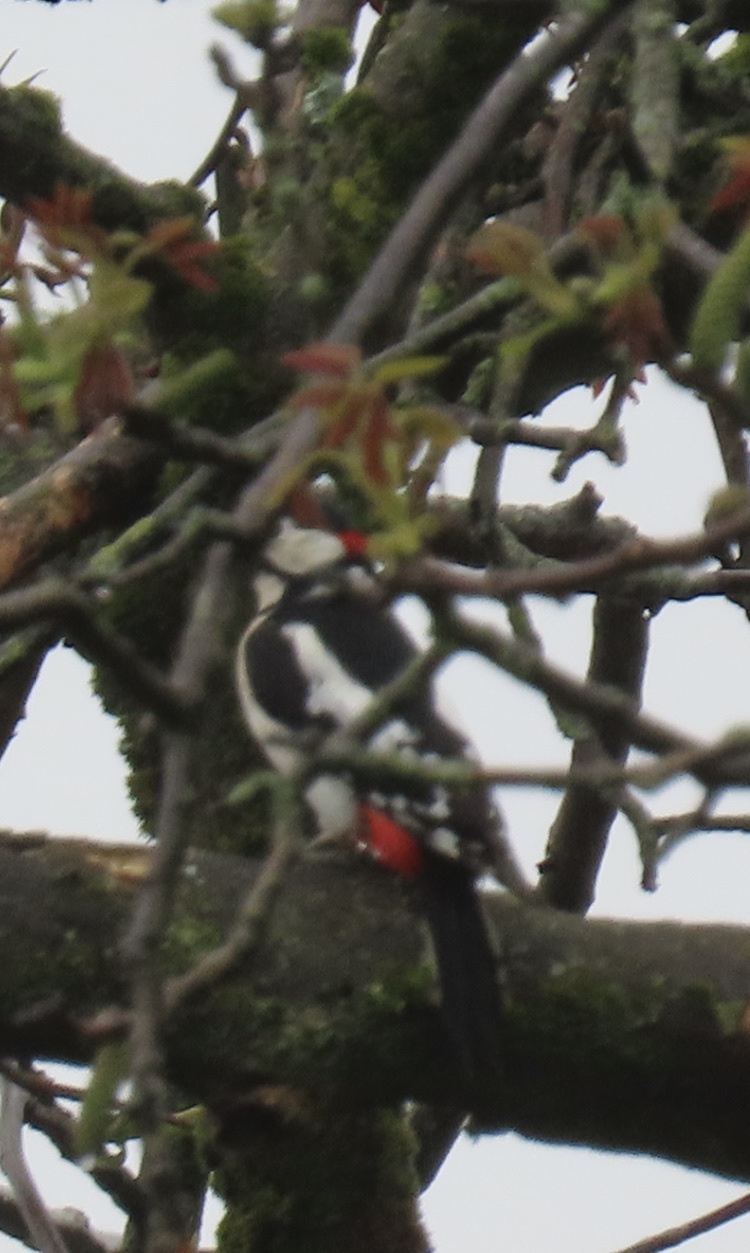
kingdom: Animalia
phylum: Chordata
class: Aves
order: Piciformes
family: Picidae
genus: Dendrocopos
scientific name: Dendrocopos major
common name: Great spotted woodpecker
